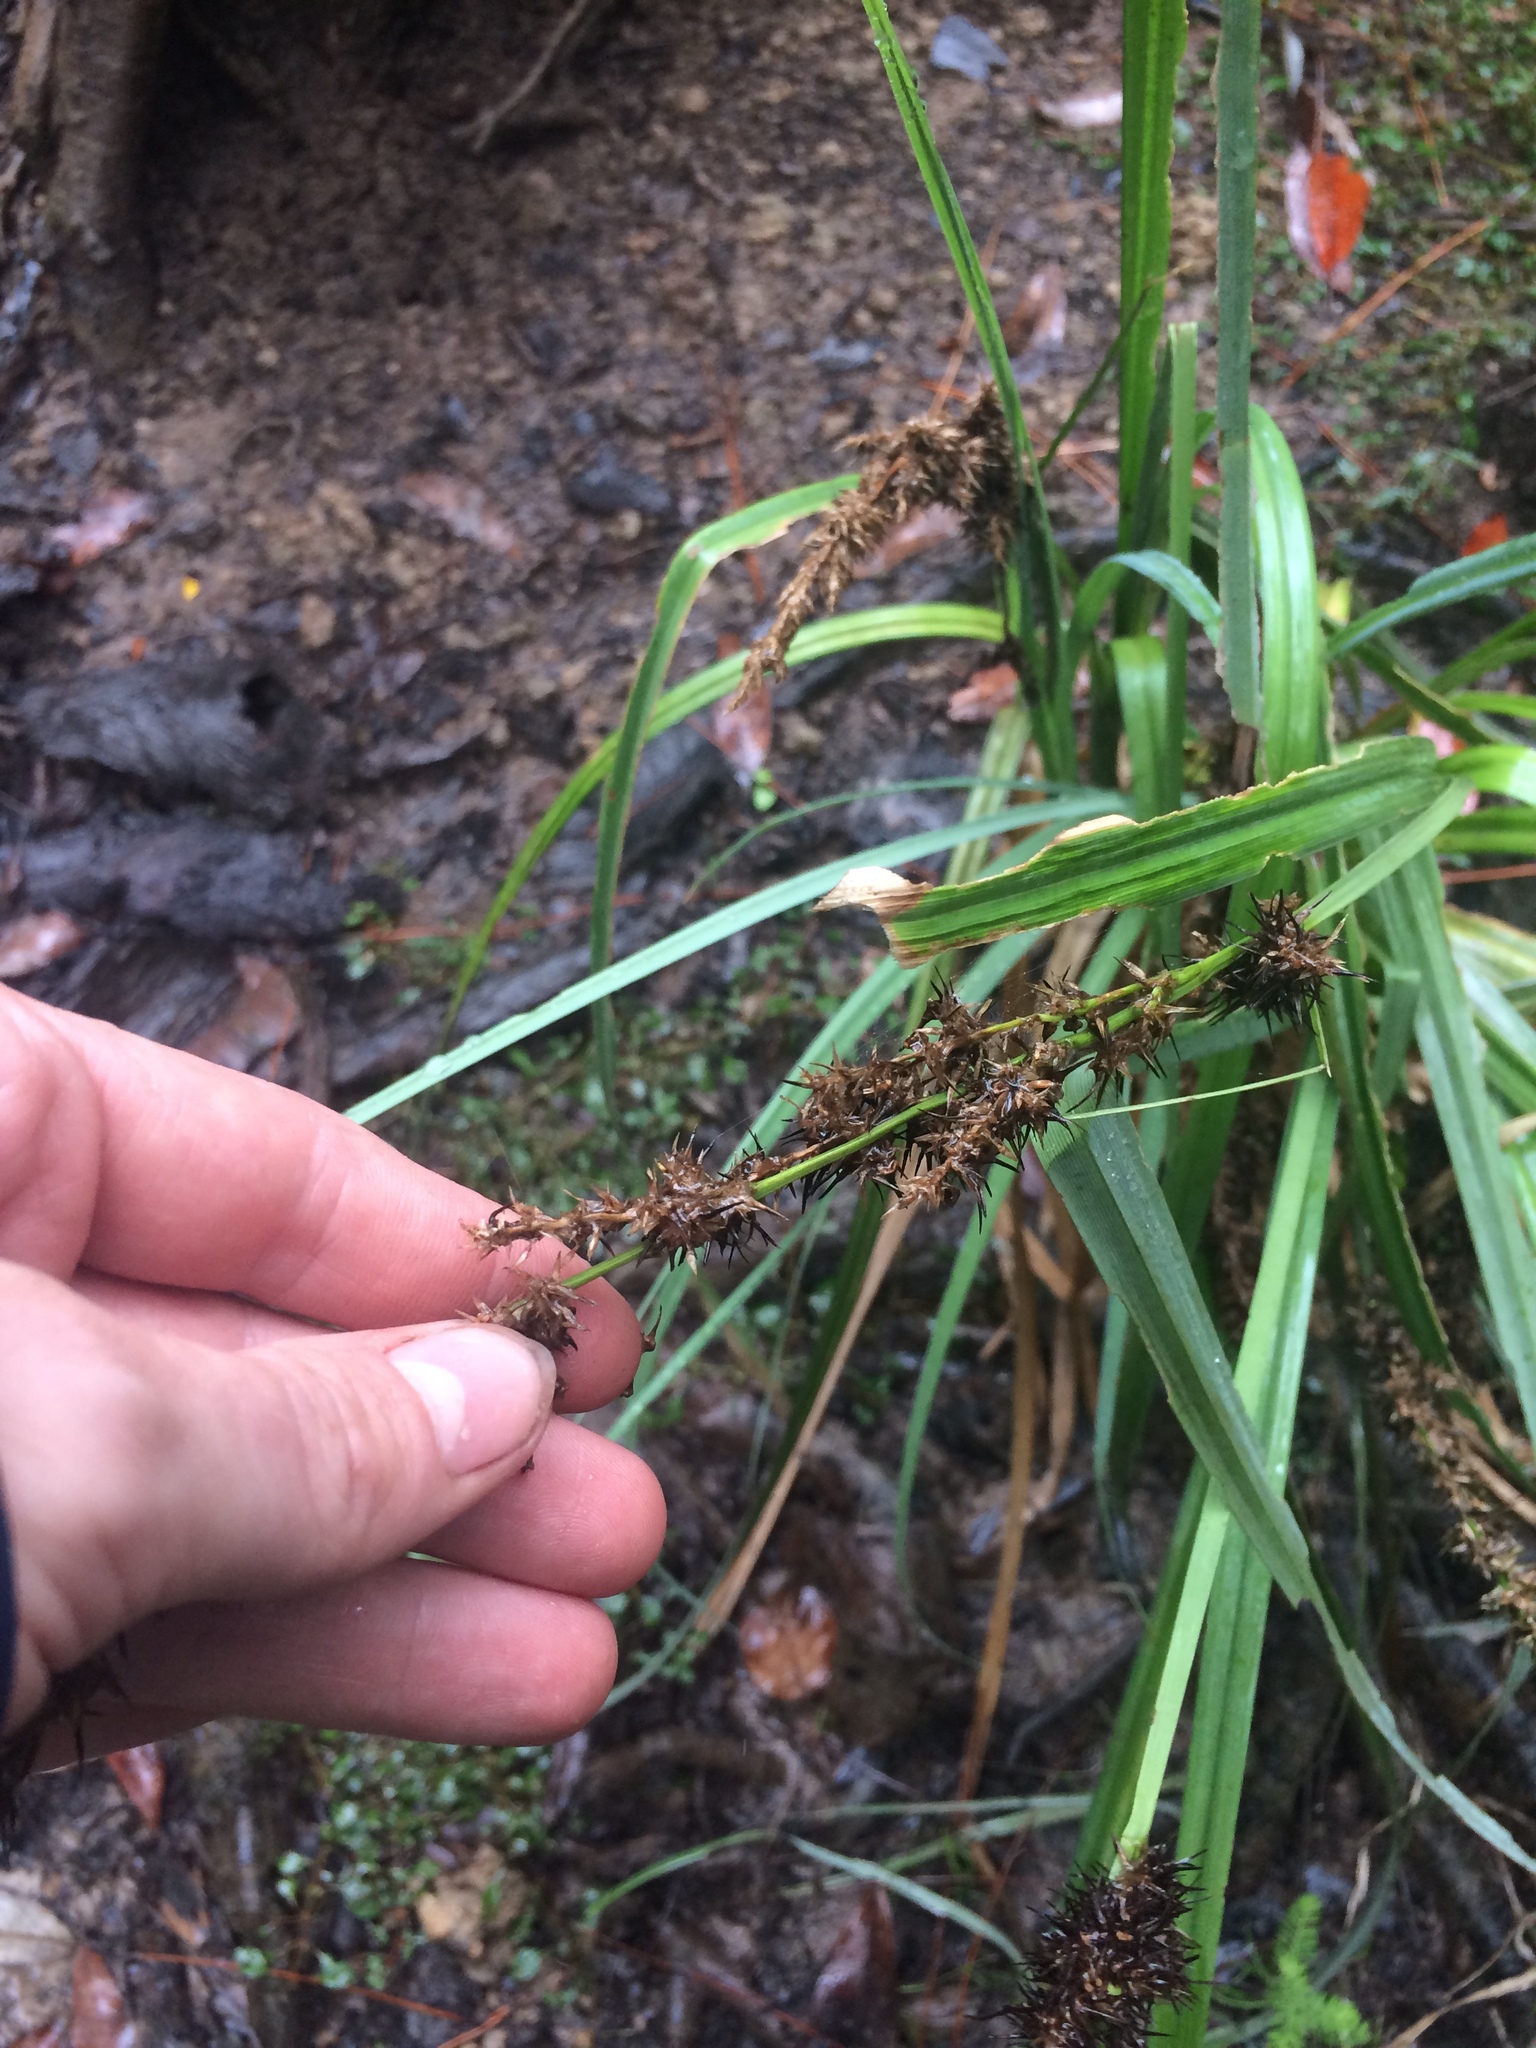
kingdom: Plantae
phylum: Tracheophyta
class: Liliopsida
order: Poales
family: Cyperaceae
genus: Carex
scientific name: Carex crus-corvi
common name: Crow-spur sedge
